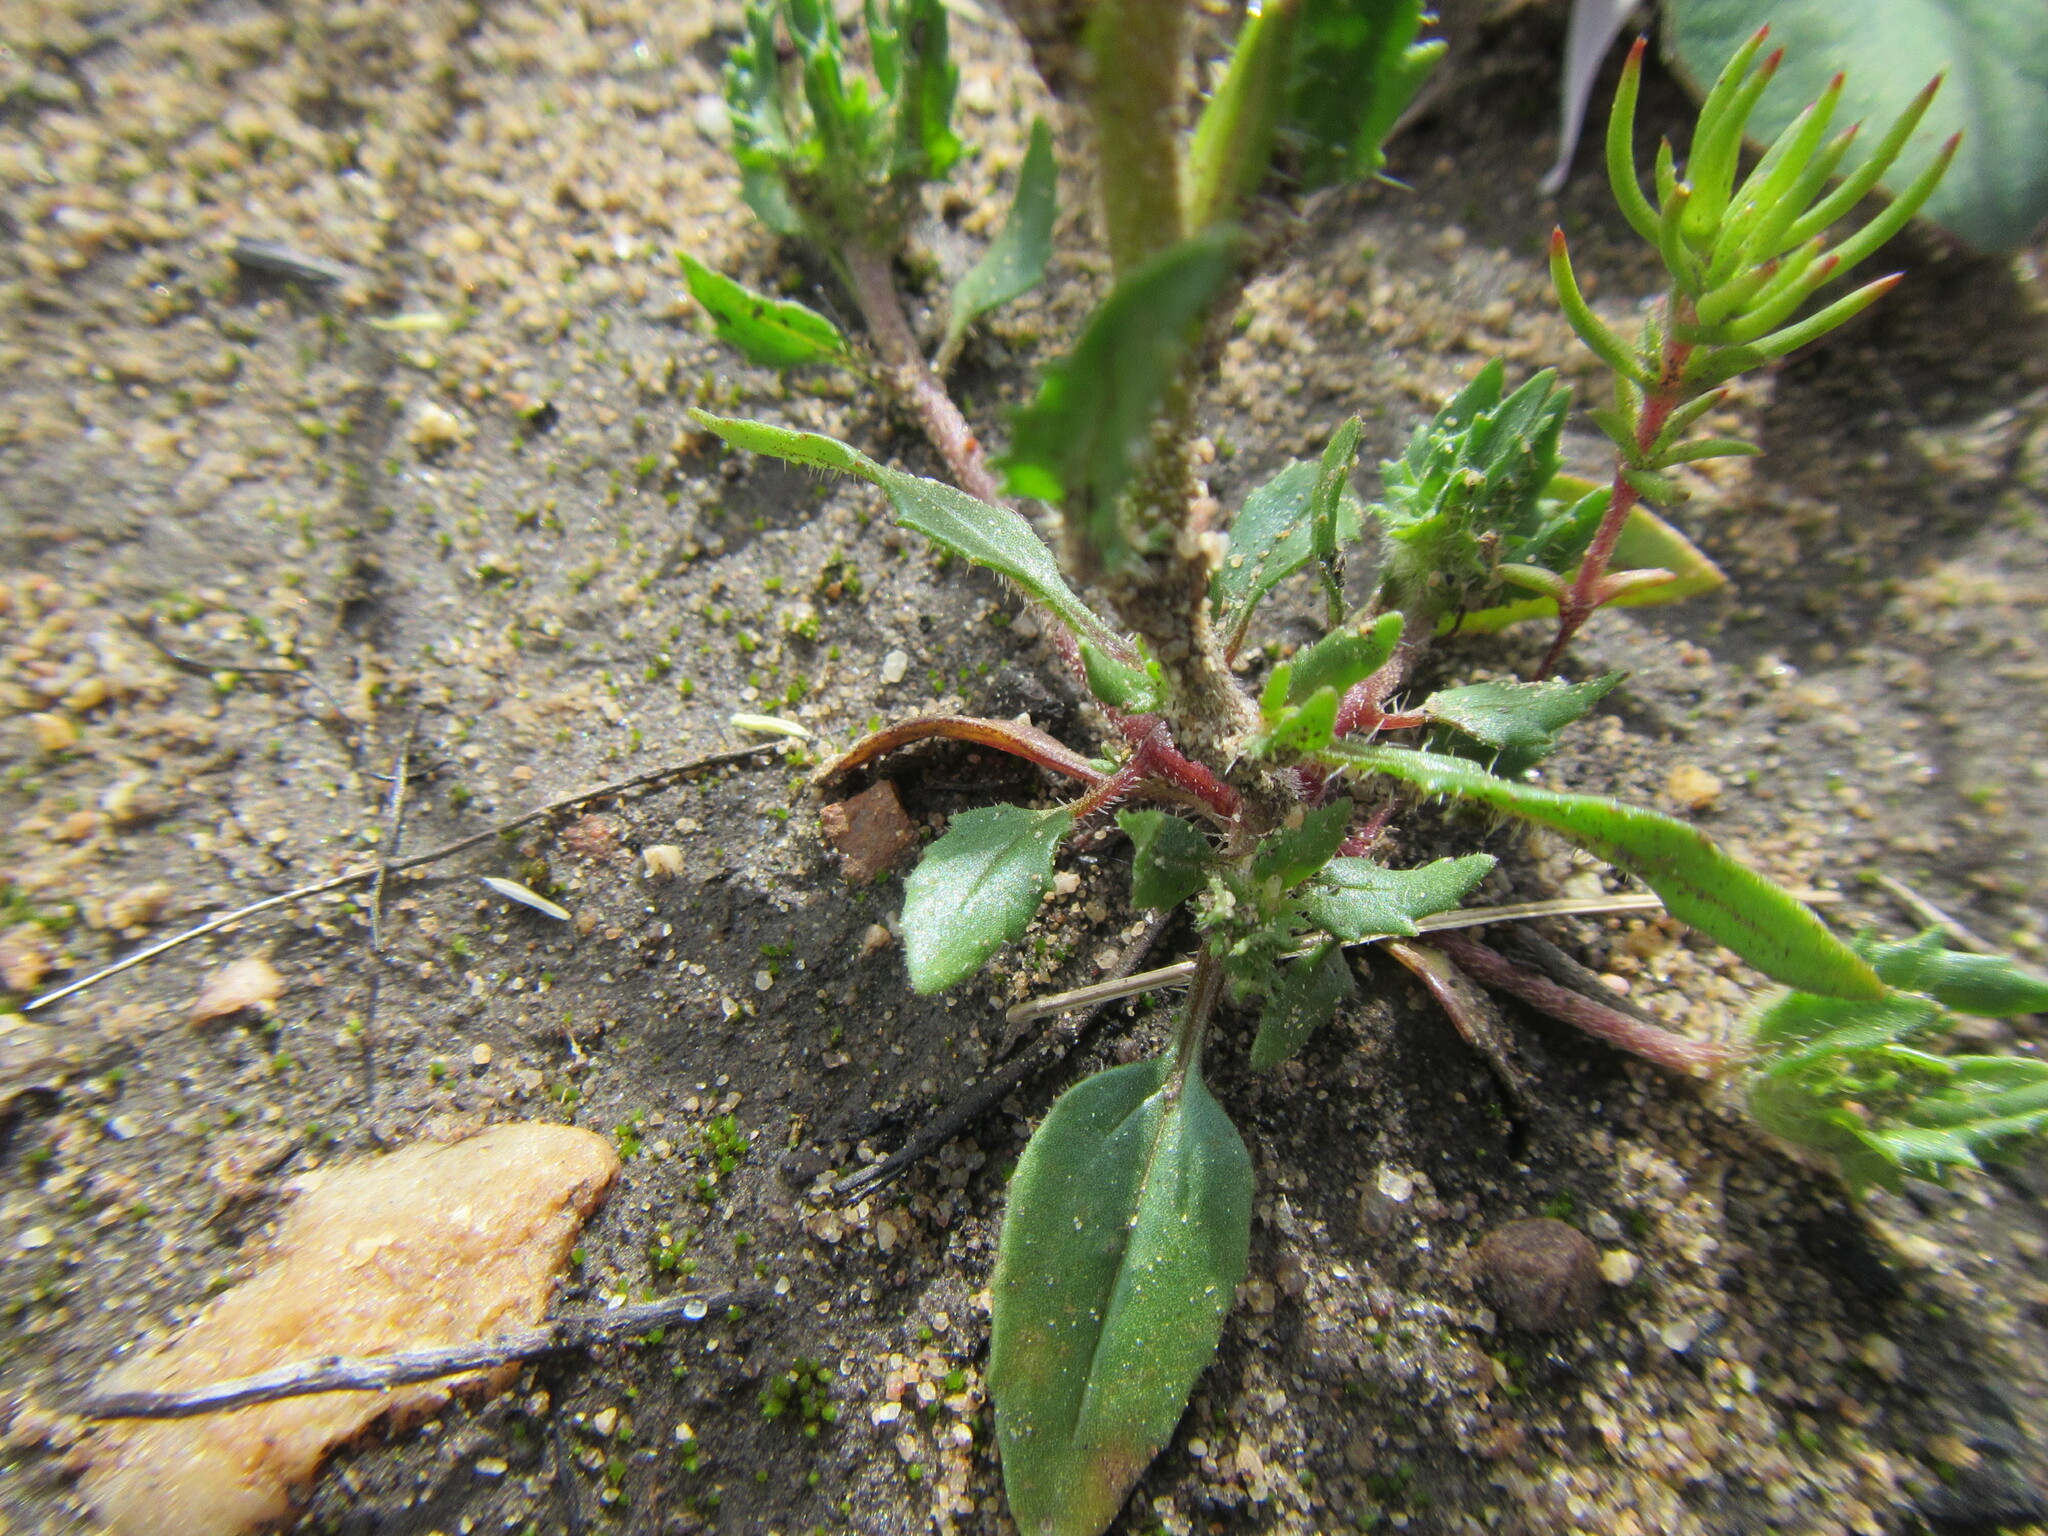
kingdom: Plantae
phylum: Tracheophyta
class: Magnoliopsida
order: Lamiales
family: Scrophulariaceae
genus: Zaluzianskya
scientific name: Zaluzianskya divaricata
